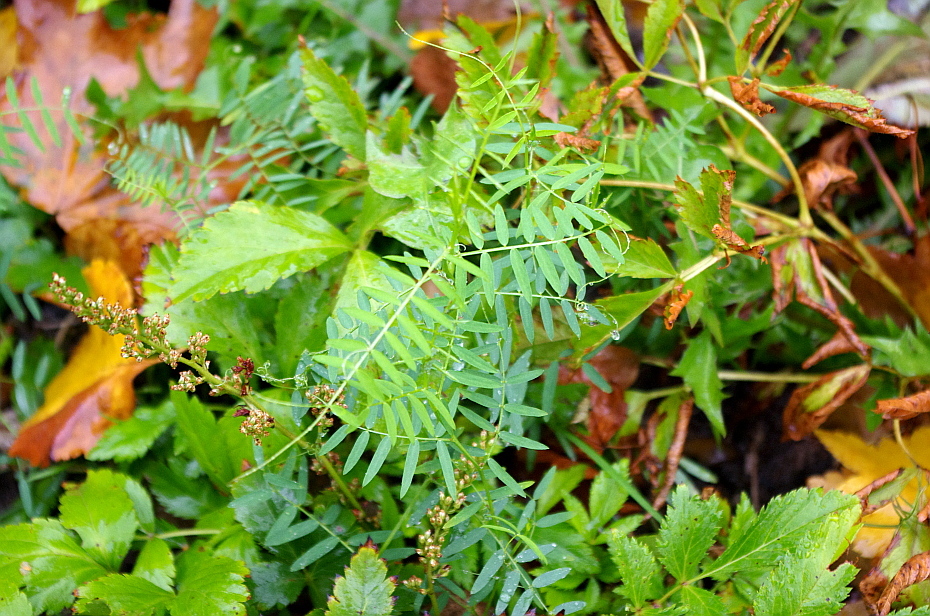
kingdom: Plantae
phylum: Tracheophyta
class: Magnoliopsida
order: Fabales
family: Fabaceae
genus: Vicia
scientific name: Vicia cracca
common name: Bird vetch
